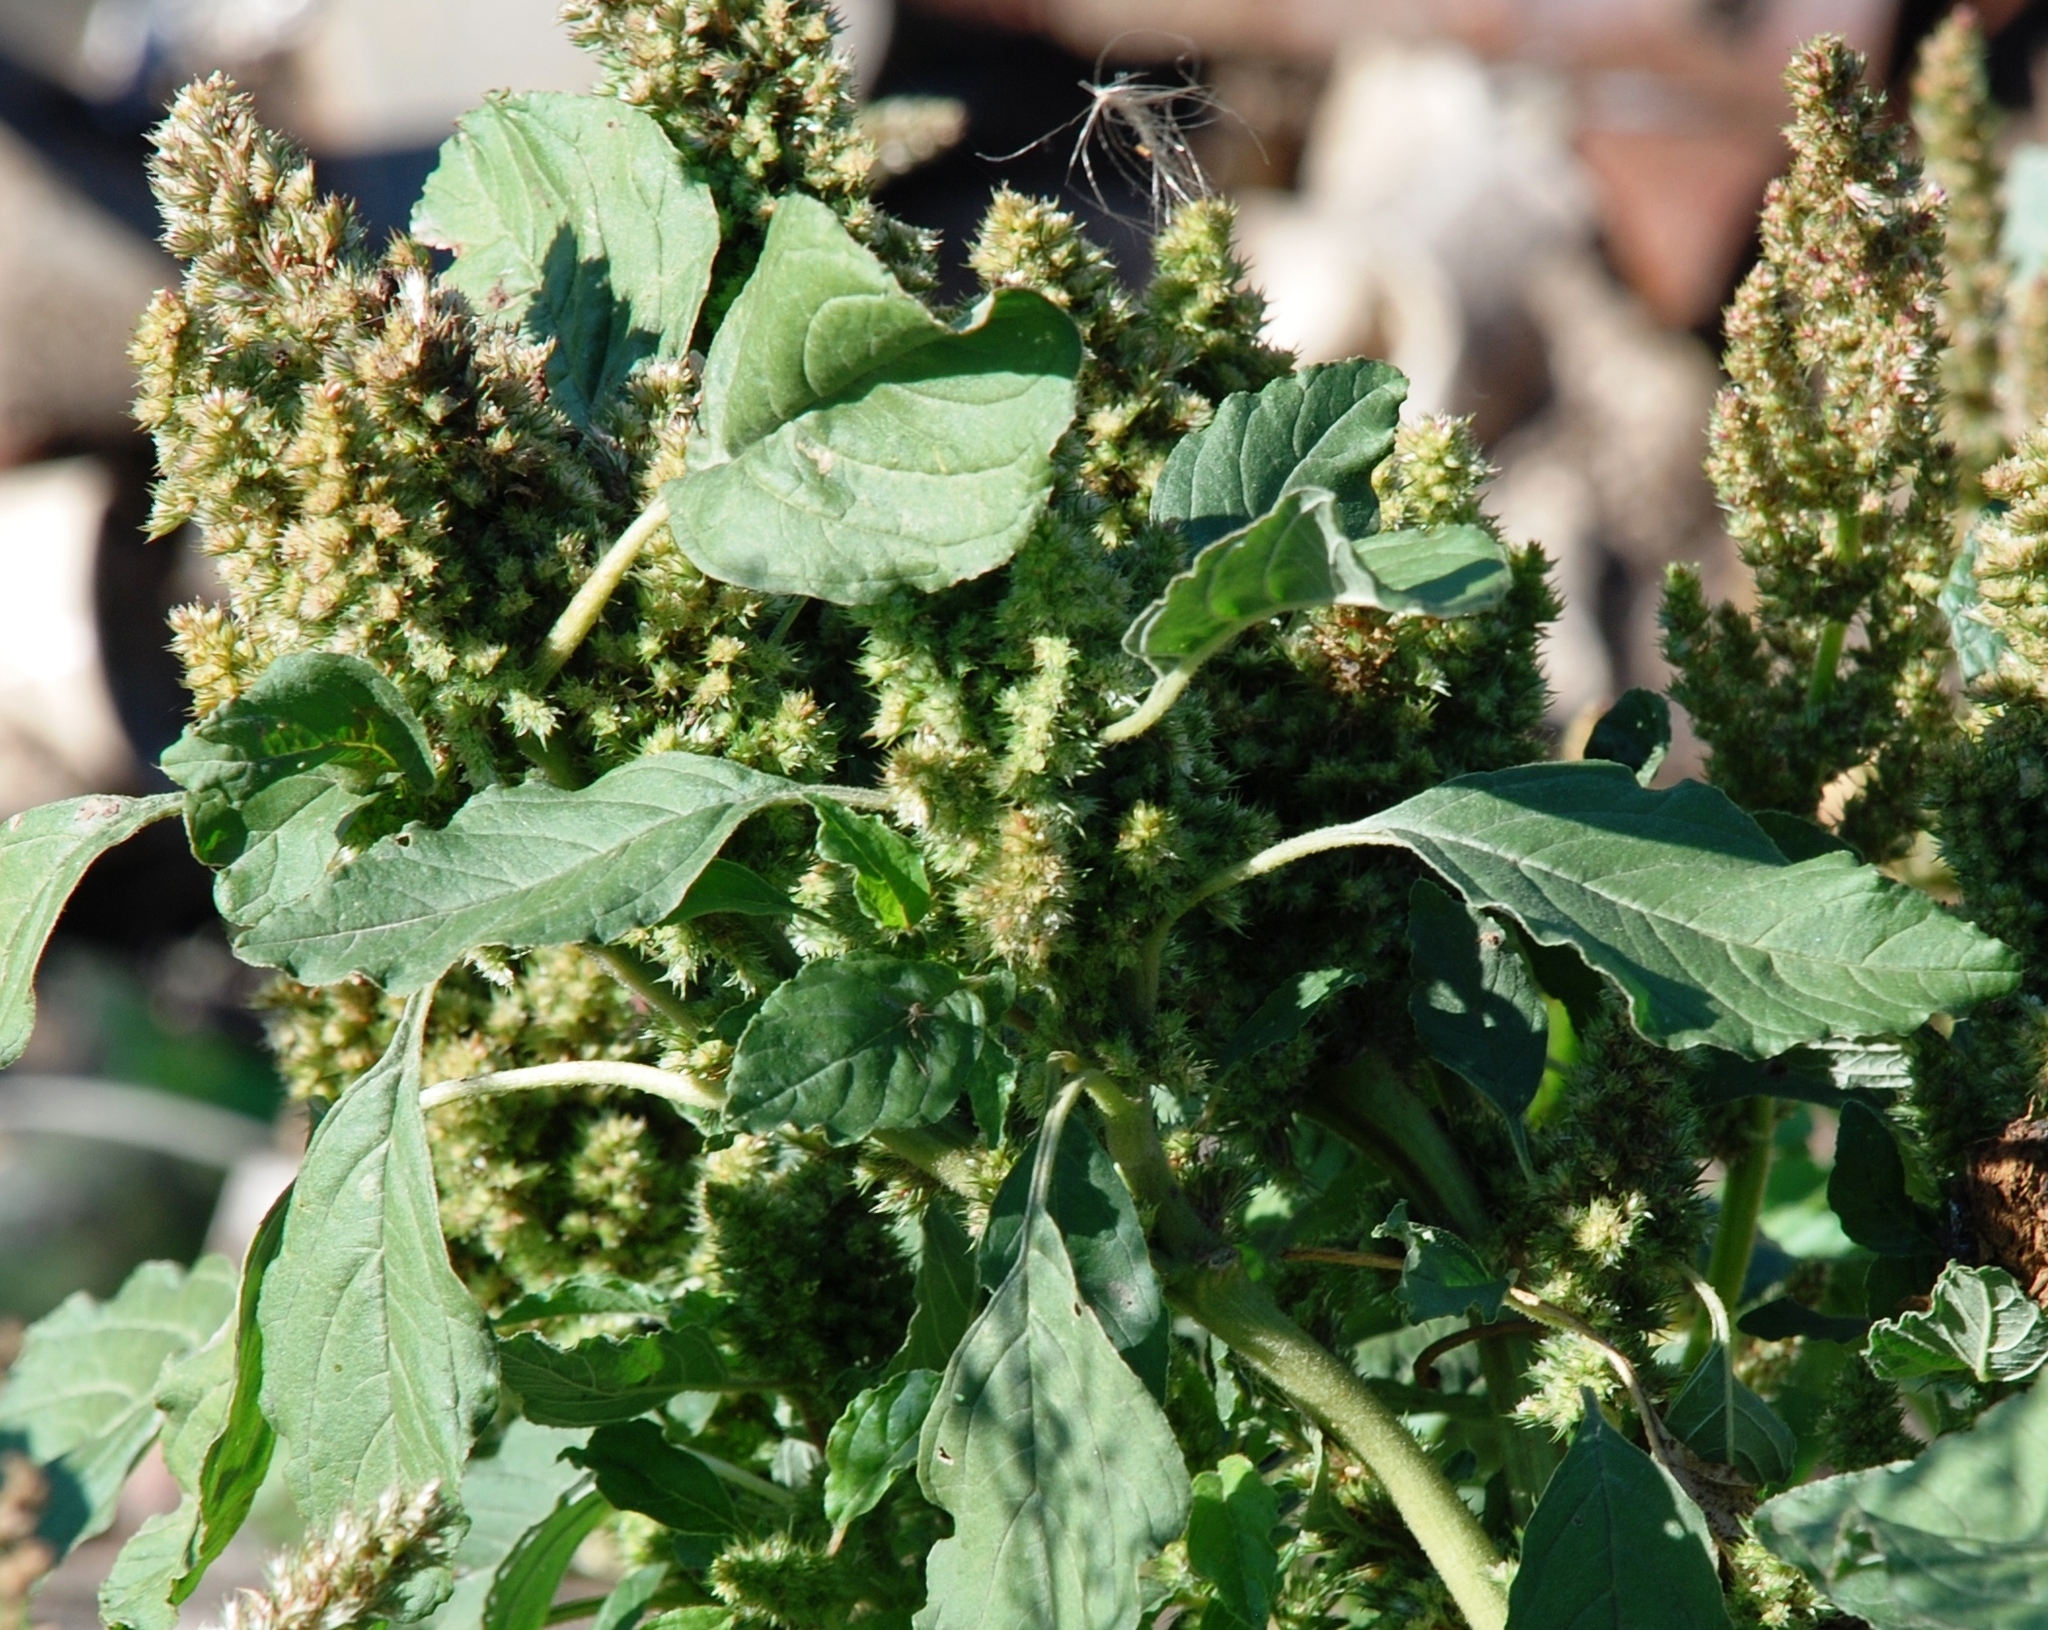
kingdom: Plantae
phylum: Tracheophyta
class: Magnoliopsida
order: Caryophyllales
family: Amaranthaceae
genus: Amaranthus
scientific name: Amaranthus retroflexus
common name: Redroot amaranth
